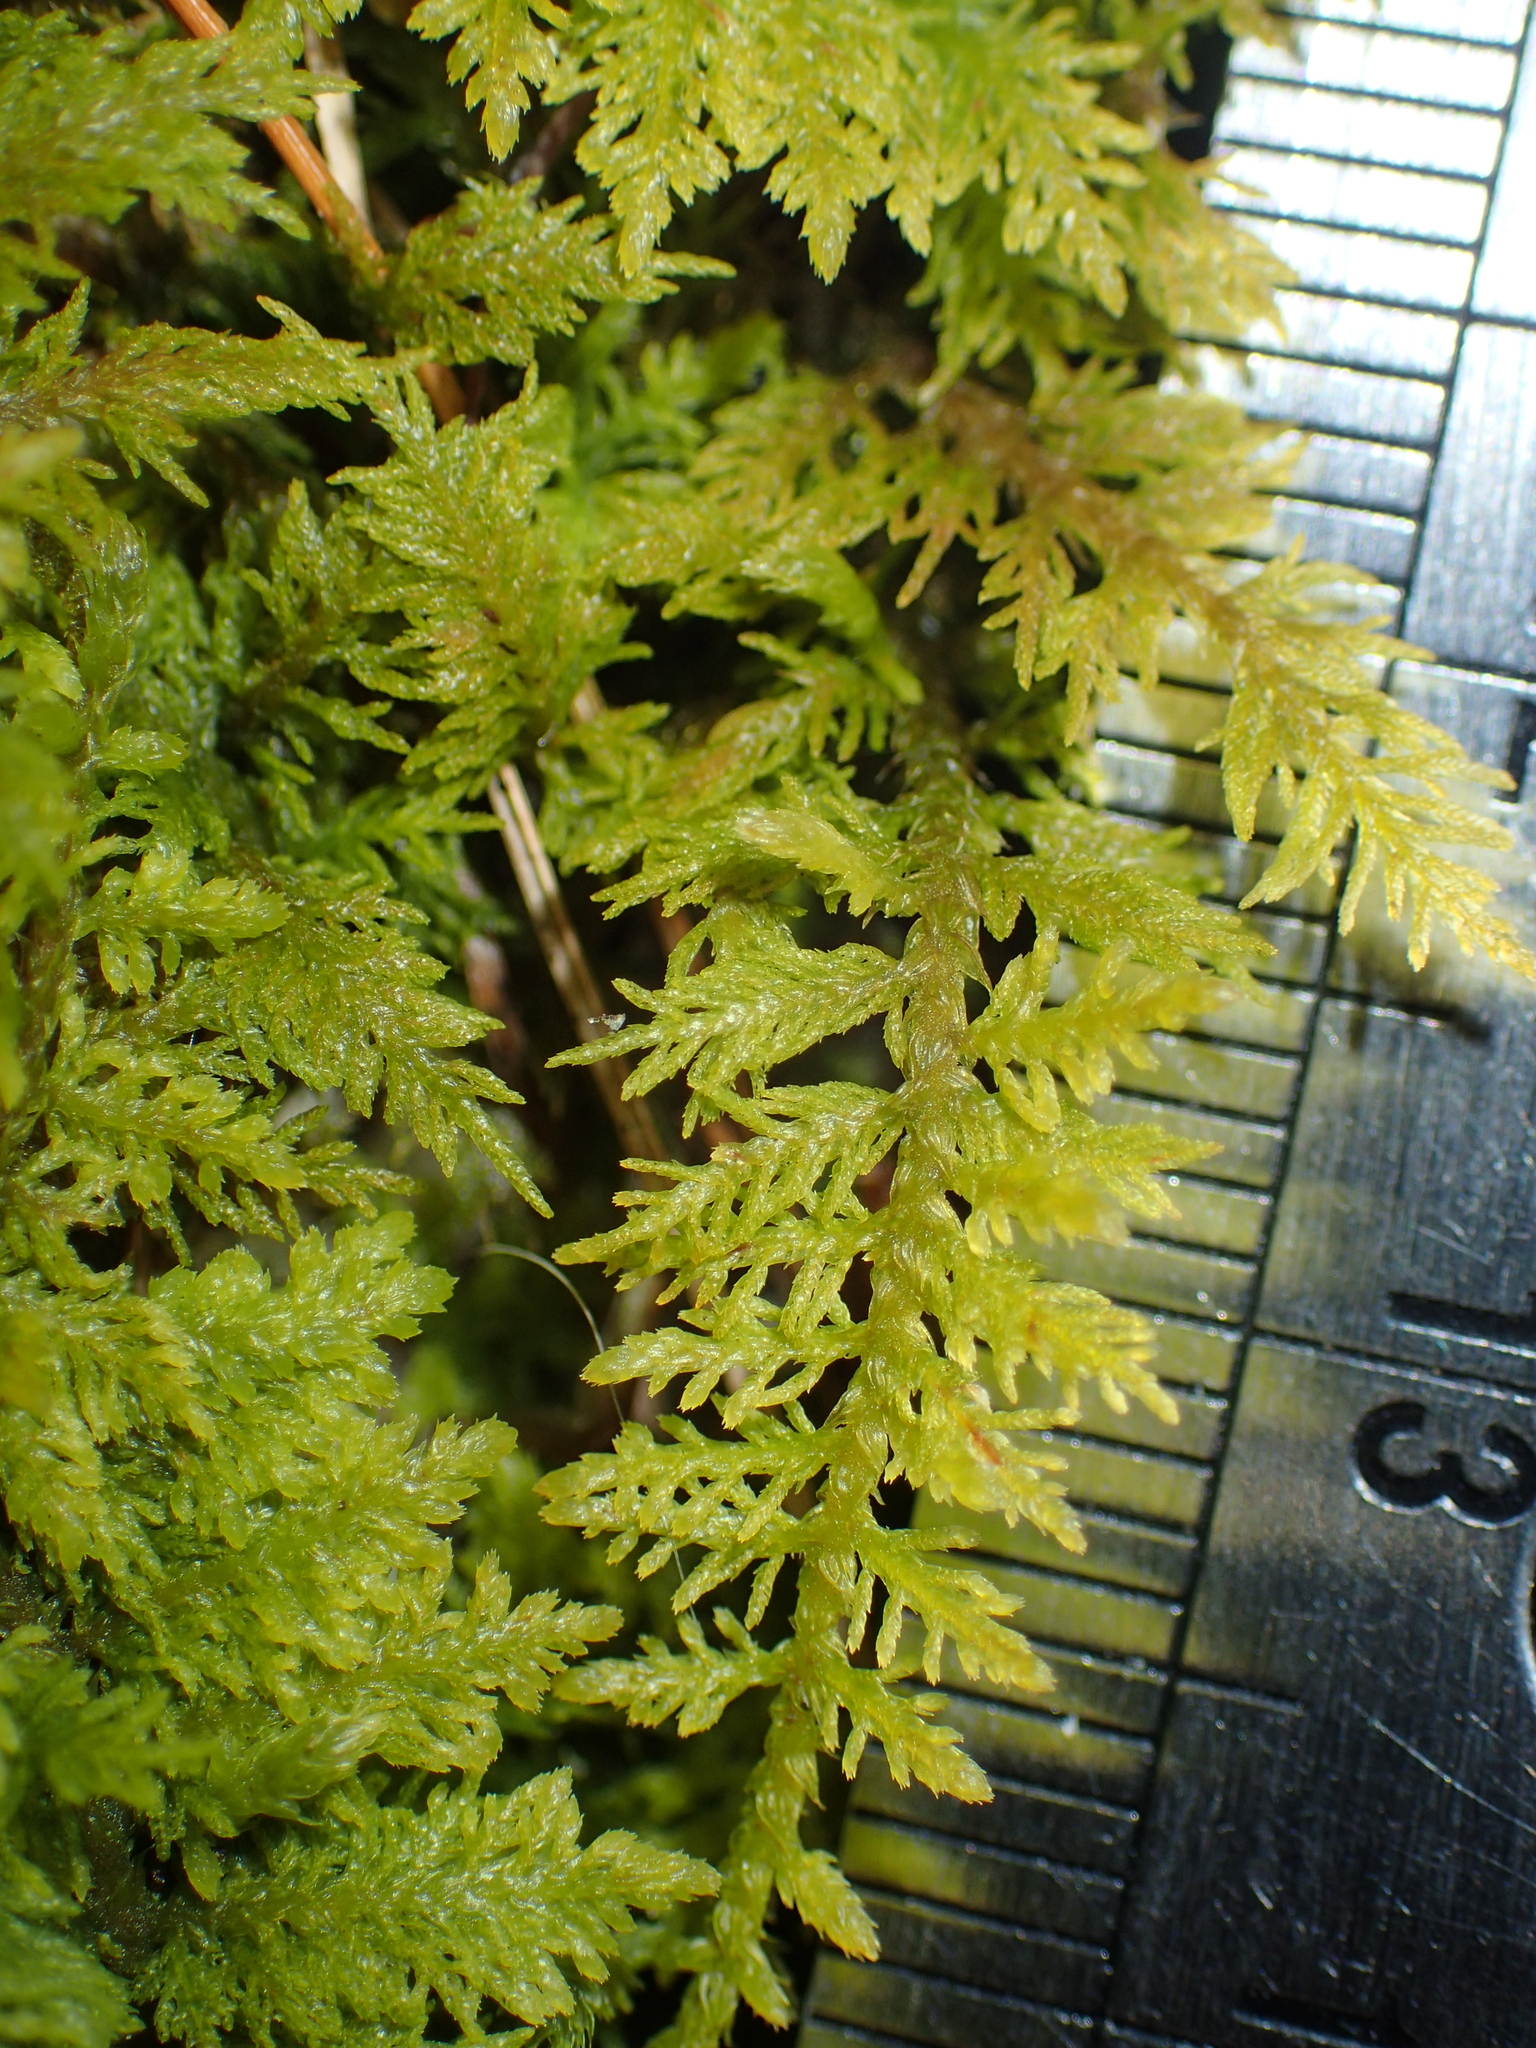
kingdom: Plantae
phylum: Bryophyta
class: Bryopsida
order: Hypnales
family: Thuidiaceae
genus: Thuidium
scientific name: Thuidium delicatulum
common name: Delicate fern moss
